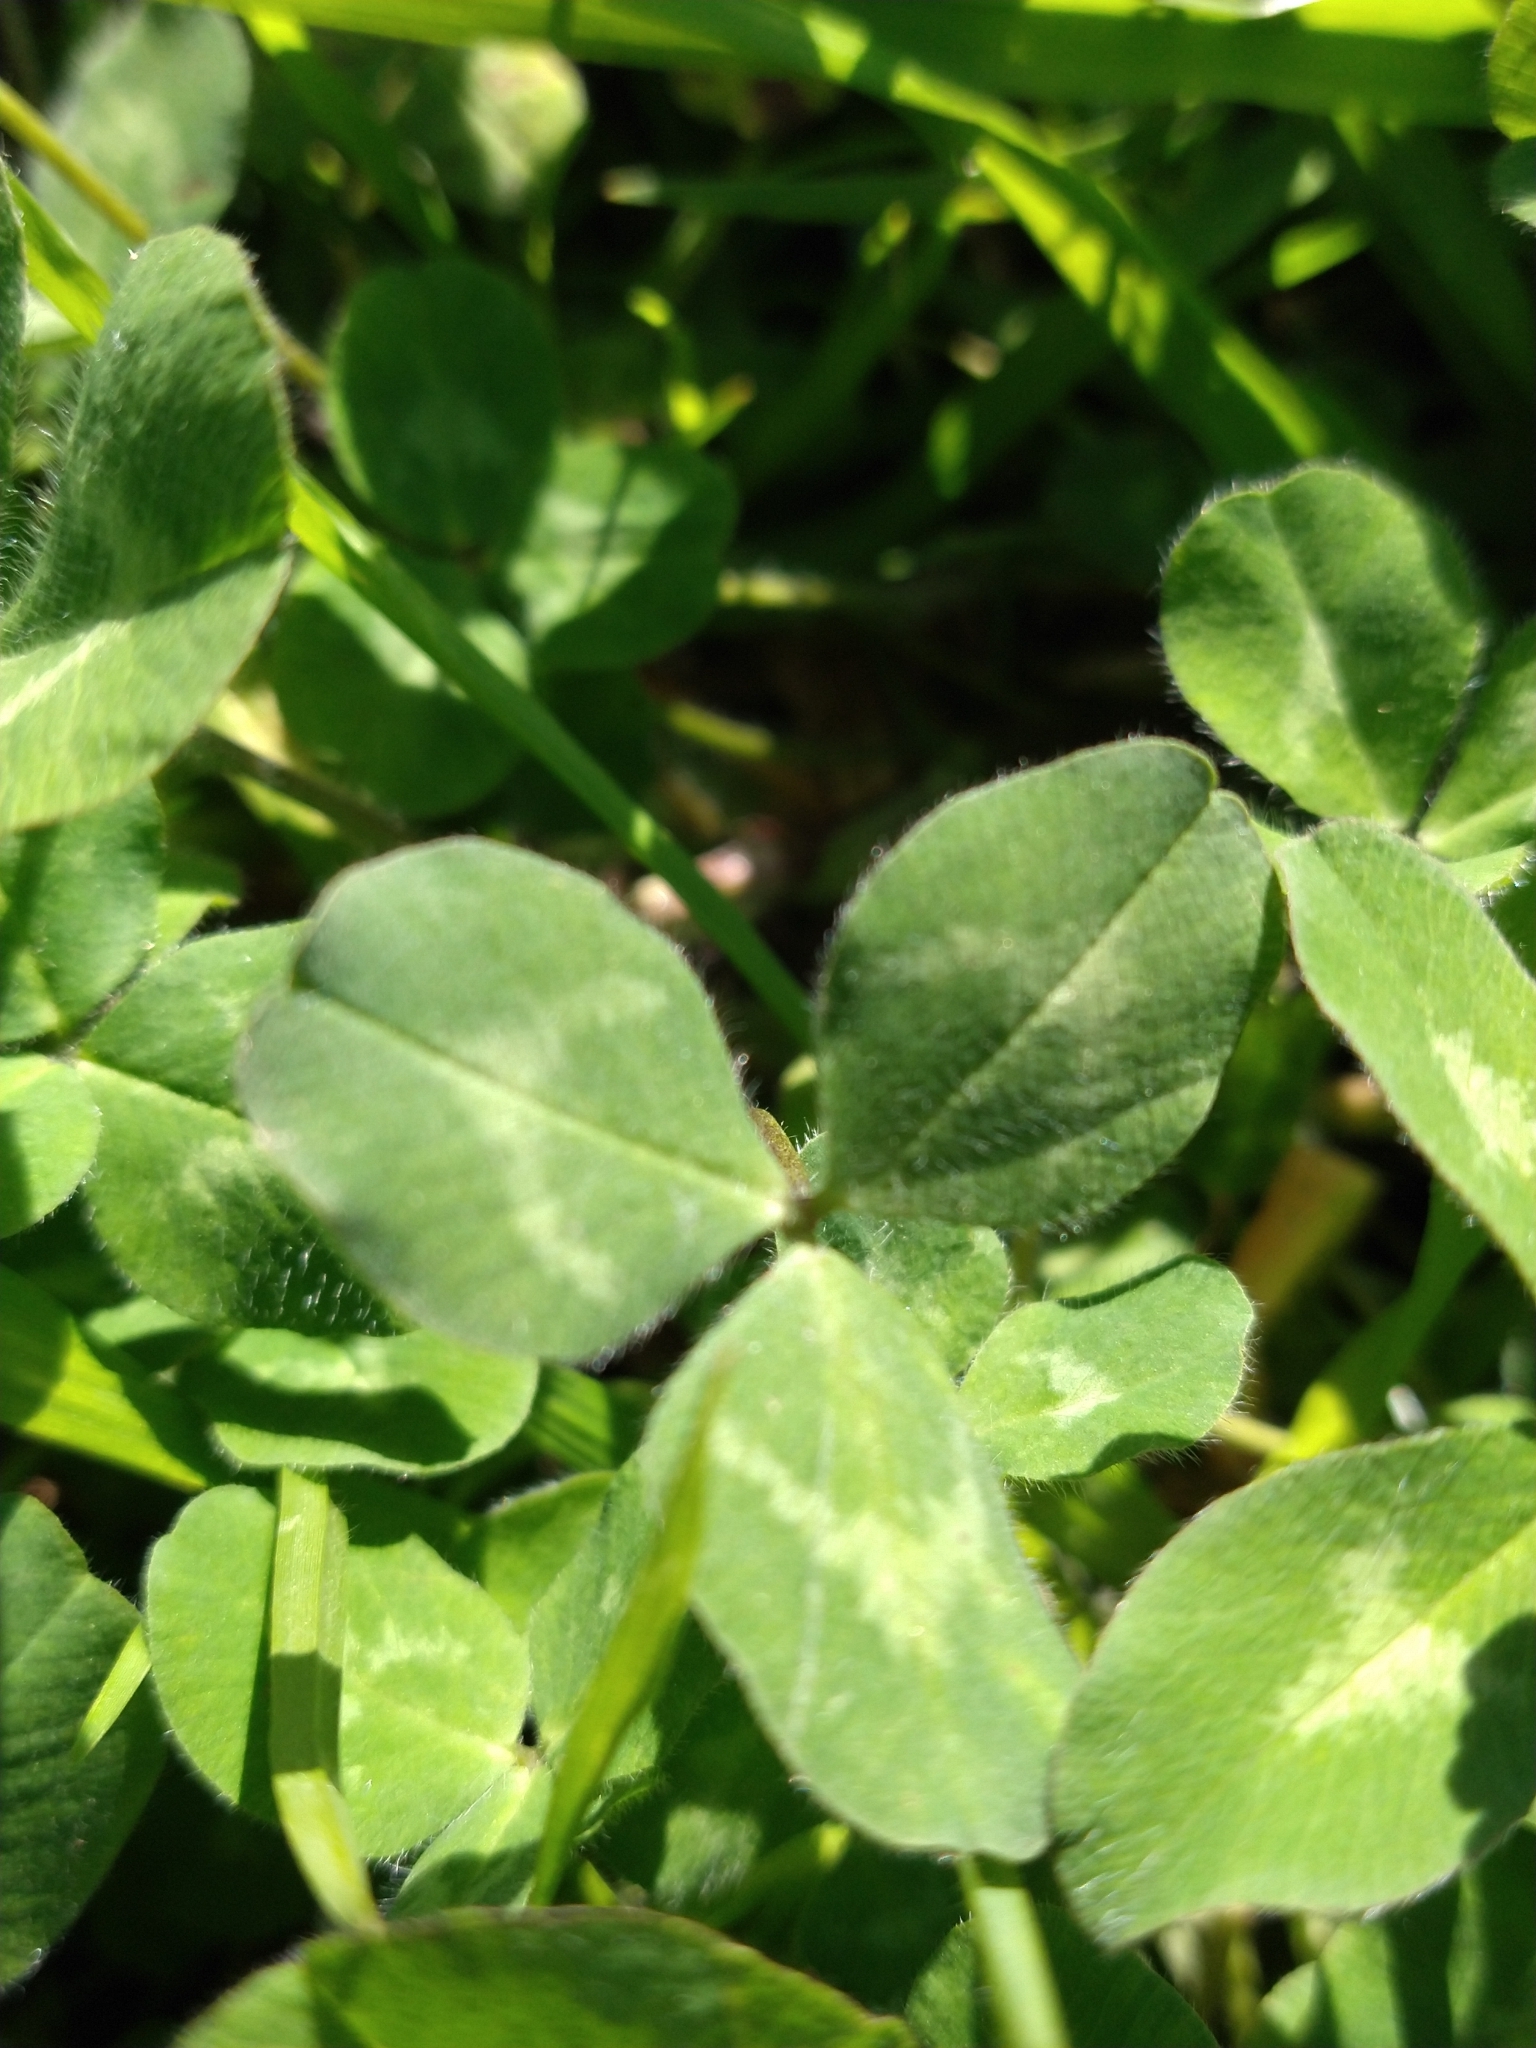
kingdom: Plantae
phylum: Tracheophyta
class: Magnoliopsida
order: Fabales
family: Fabaceae
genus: Trifolium
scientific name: Trifolium pratense
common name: Red clover
